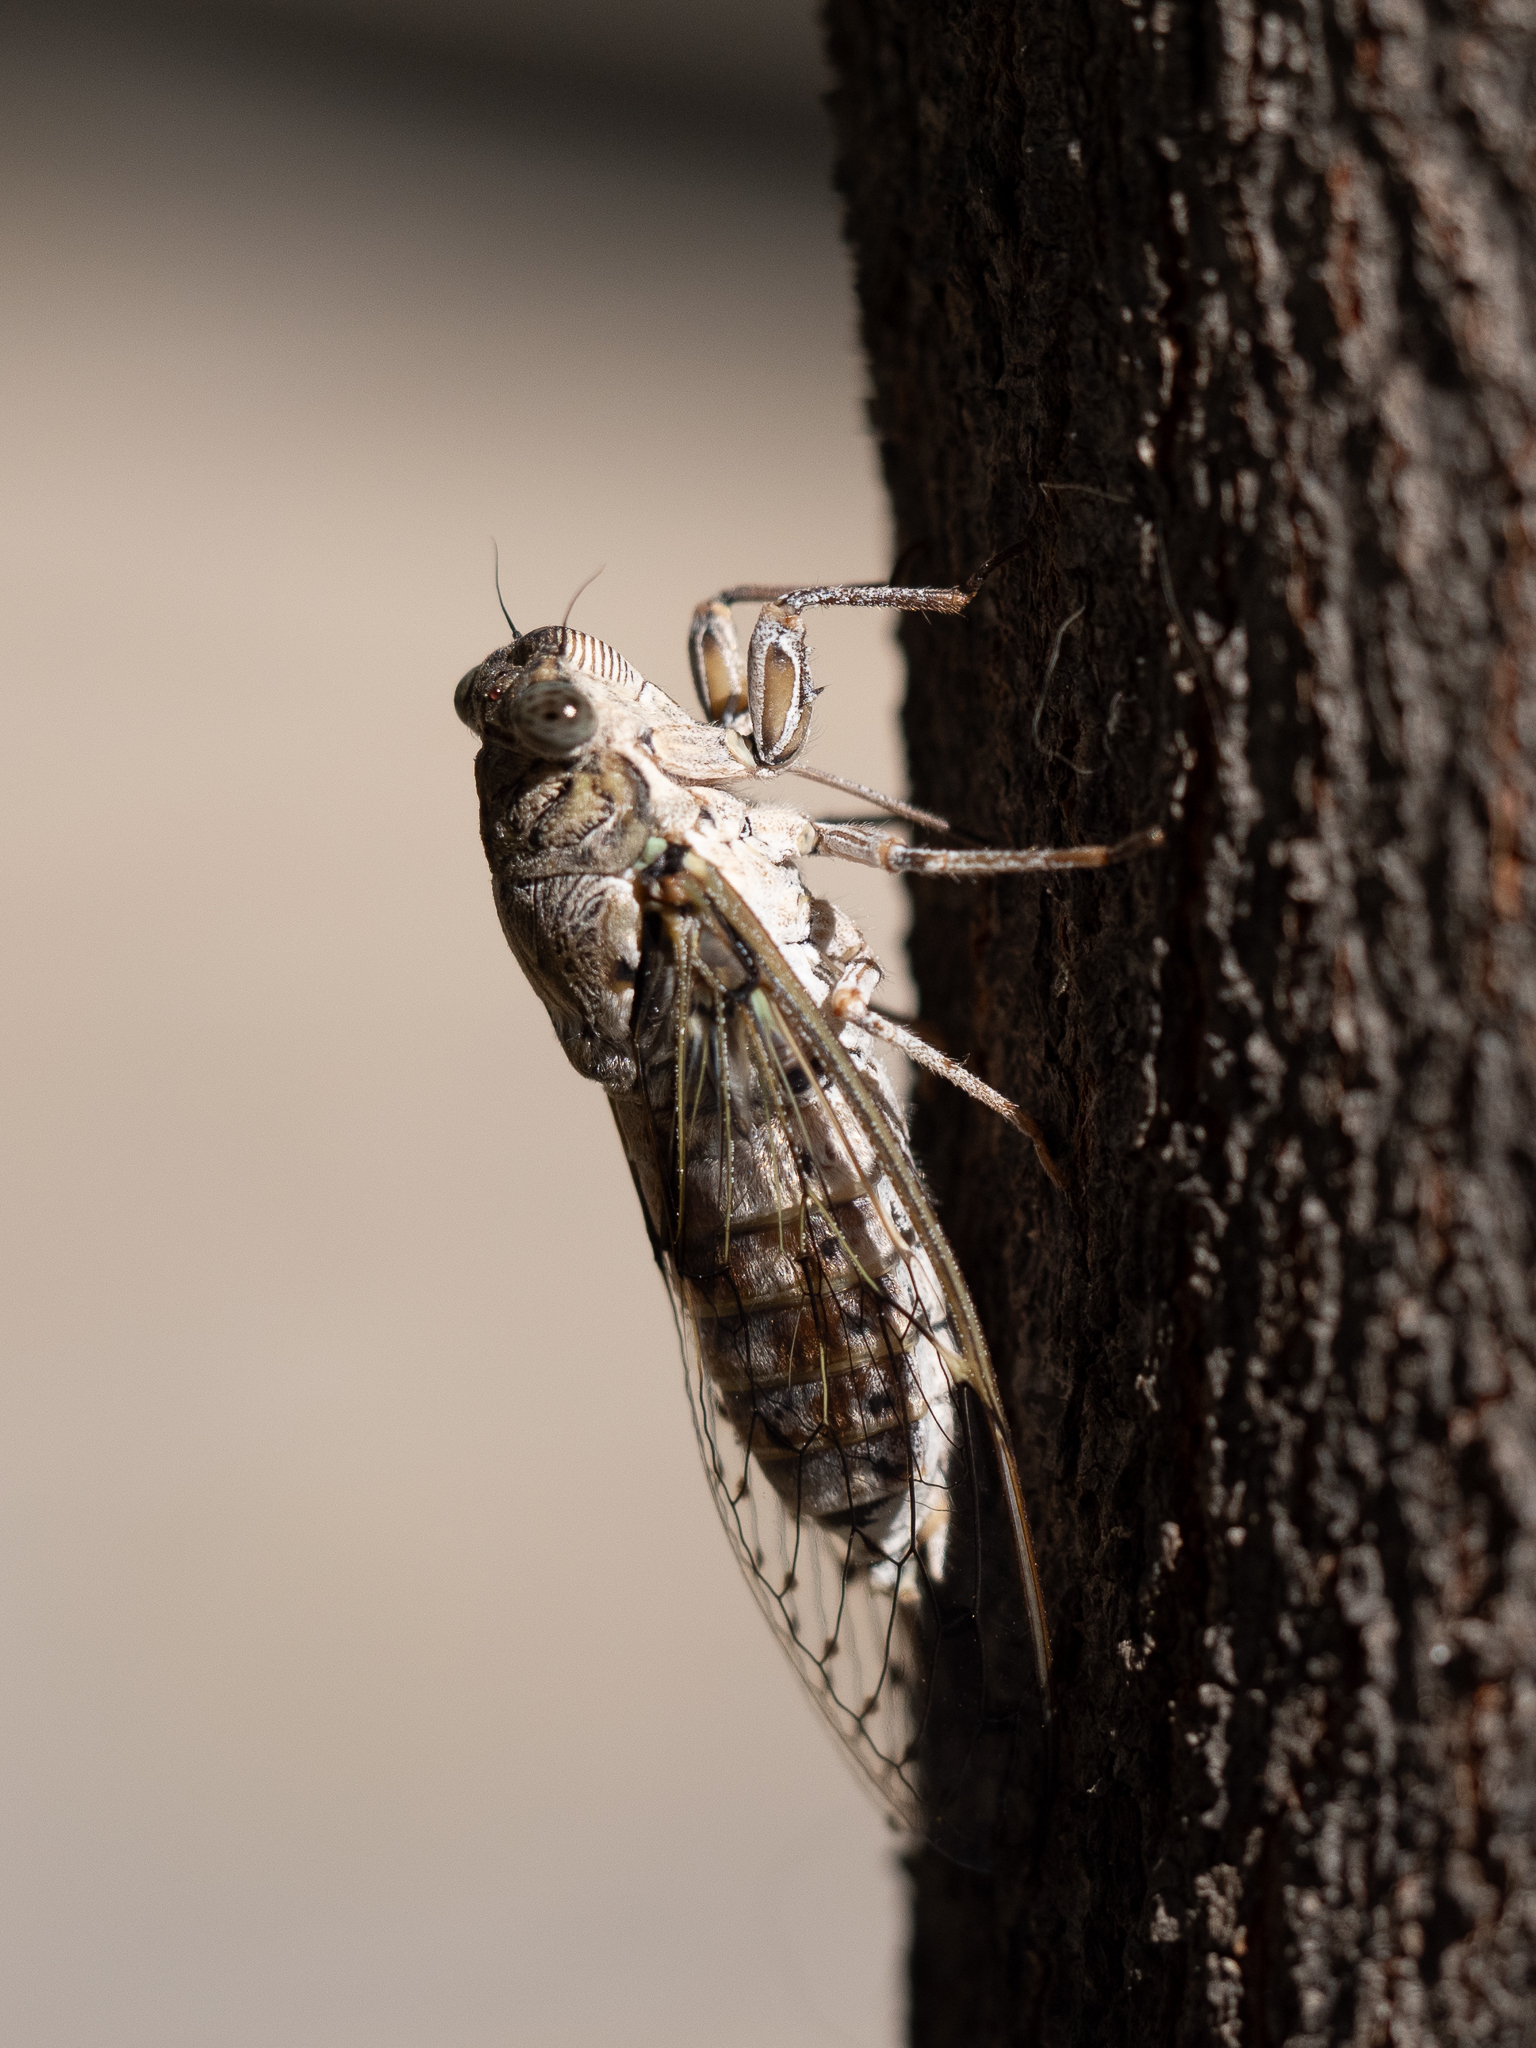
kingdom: Animalia
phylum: Arthropoda
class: Insecta
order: Hemiptera
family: Cicadidae
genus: Cicada
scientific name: Cicada orni
